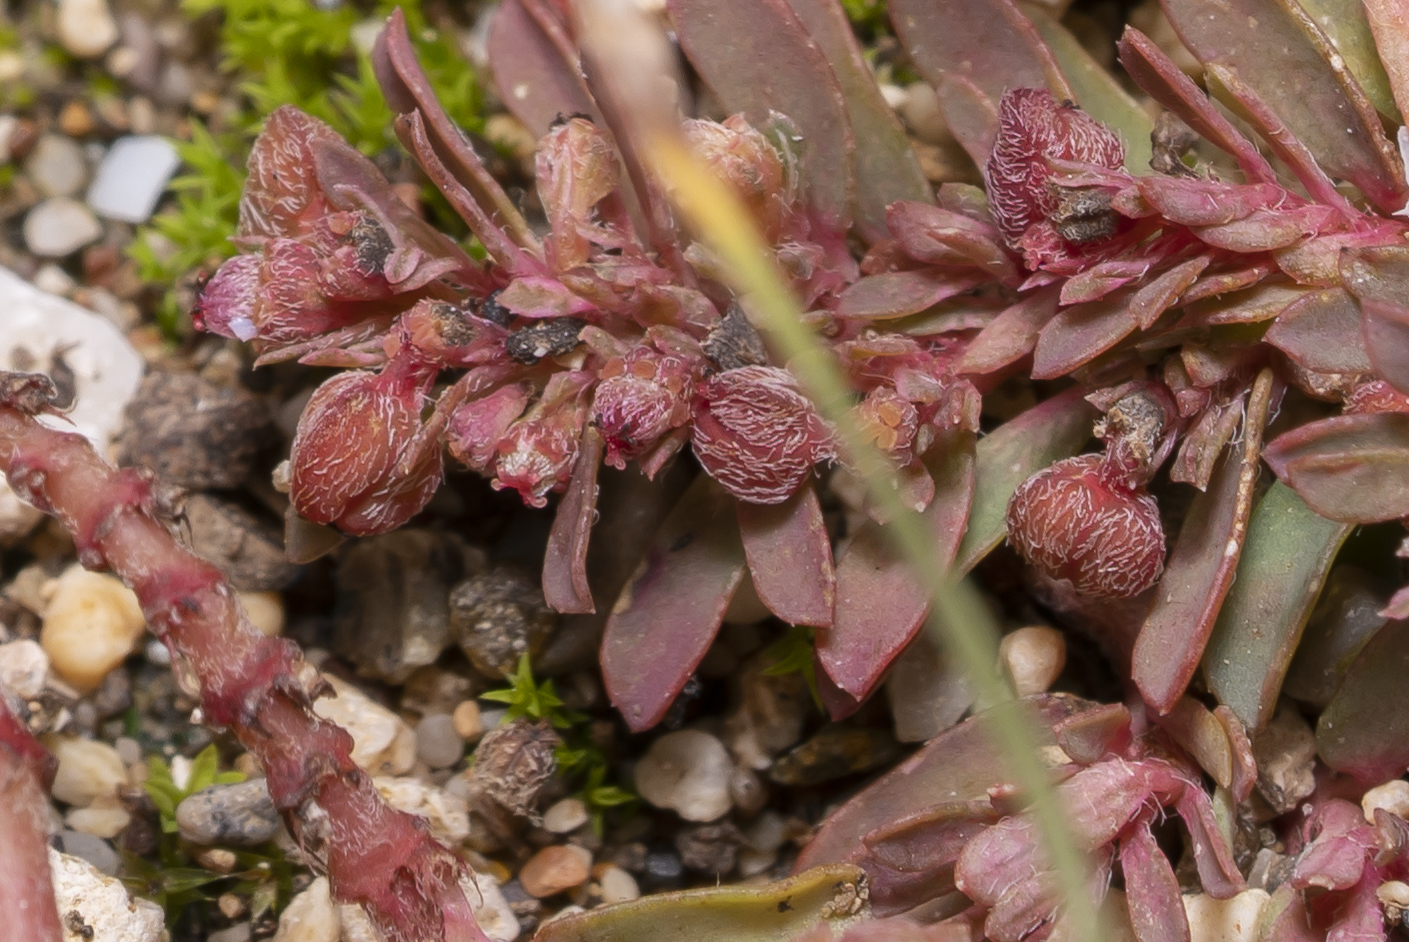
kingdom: Plantae
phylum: Tracheophyta
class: Magnoliopsida
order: Malpighiales
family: Euphorbiaceae
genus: Euphorbia
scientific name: Euphorbia maculata
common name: Spotted spurge
